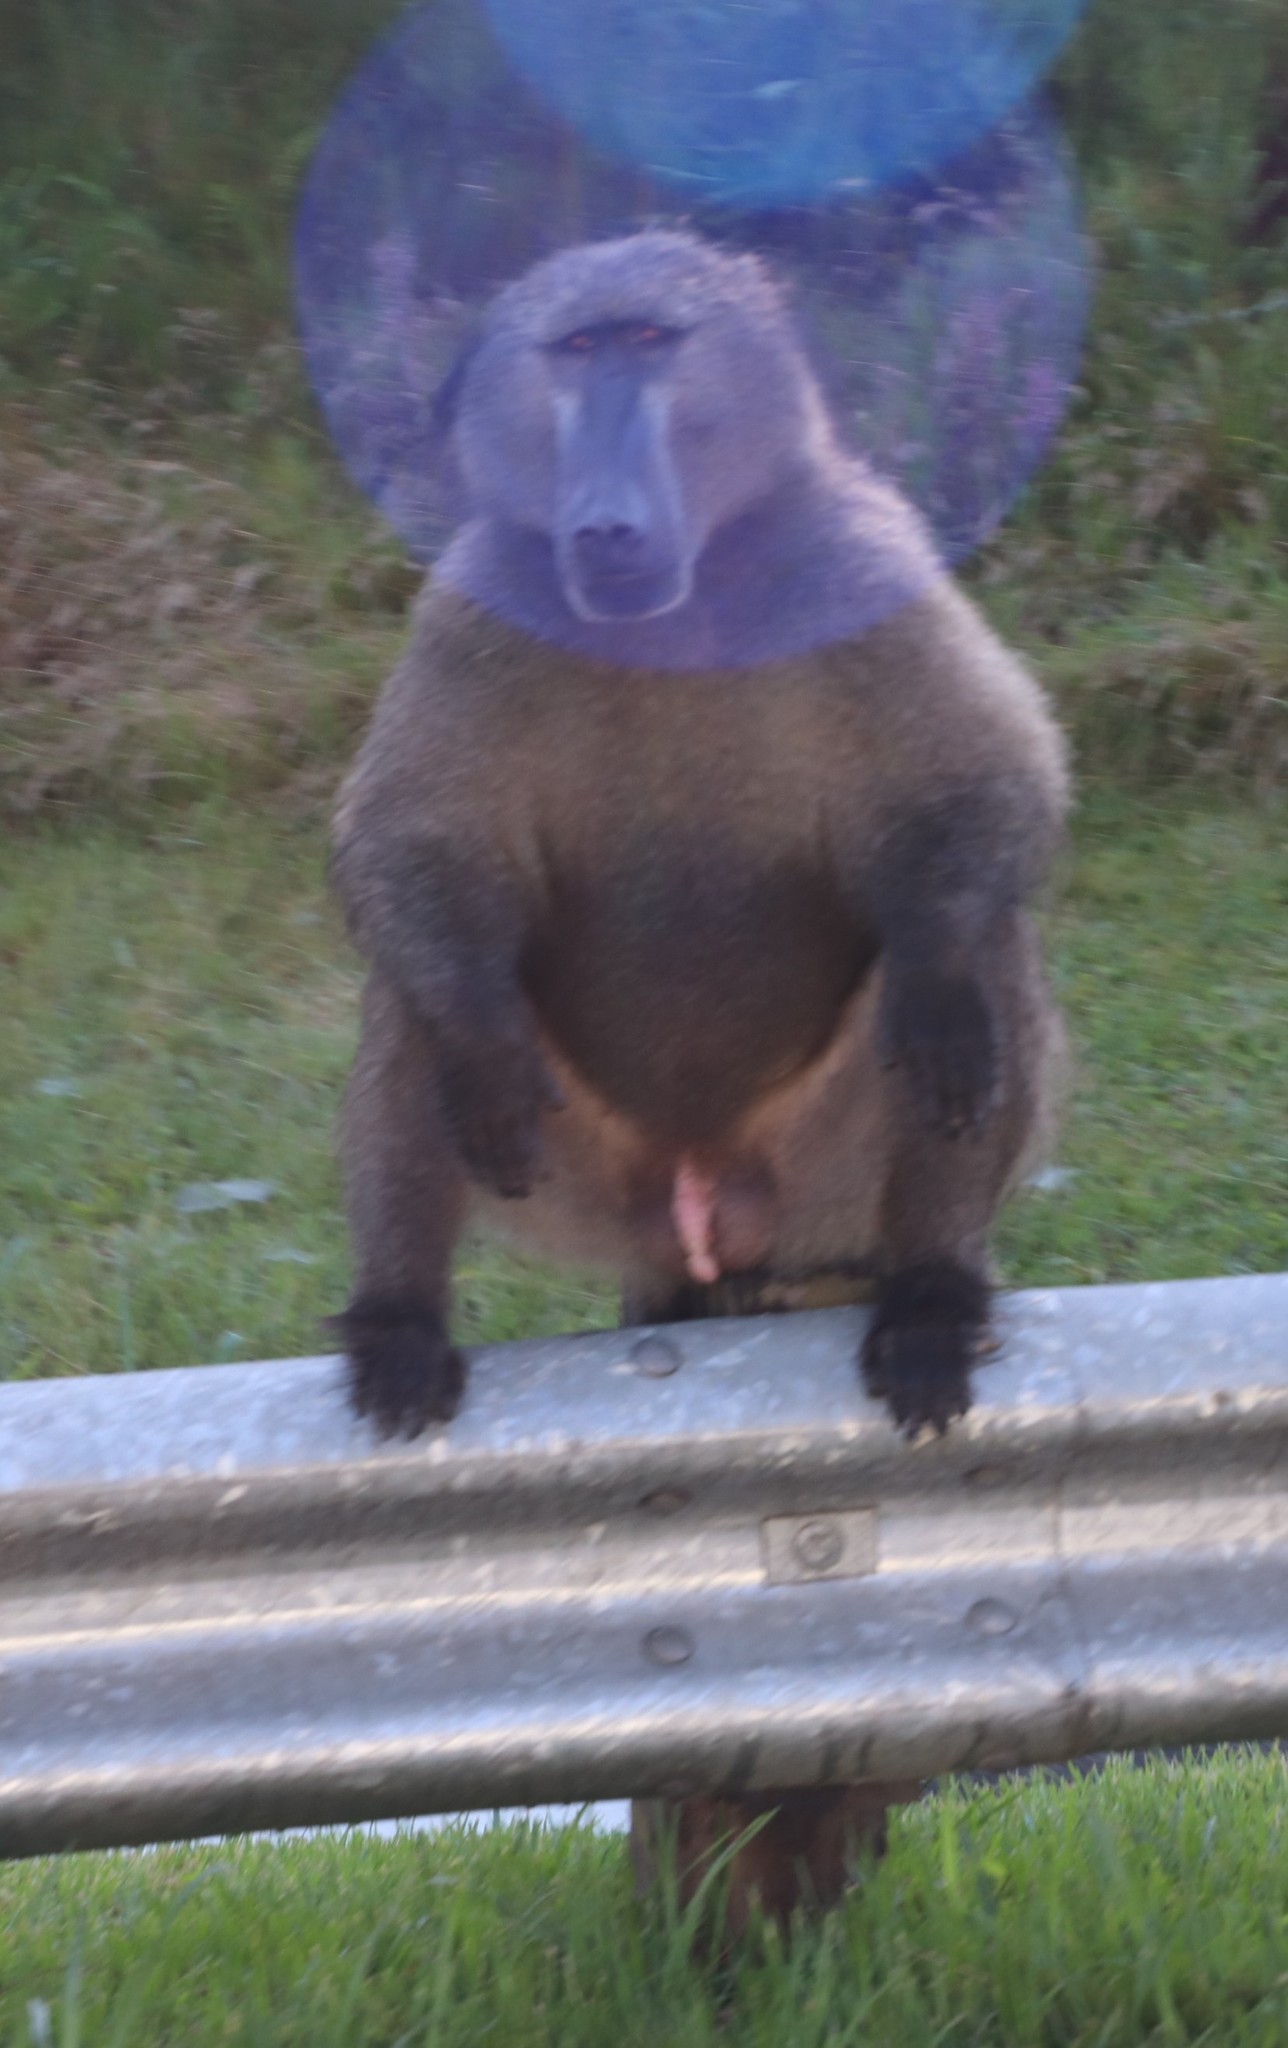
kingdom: Animalia
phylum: Chordata
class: Mammalia
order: Primates
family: Cercopithecidae
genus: Papio
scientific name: Papio ursinus
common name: Chacma baboon
